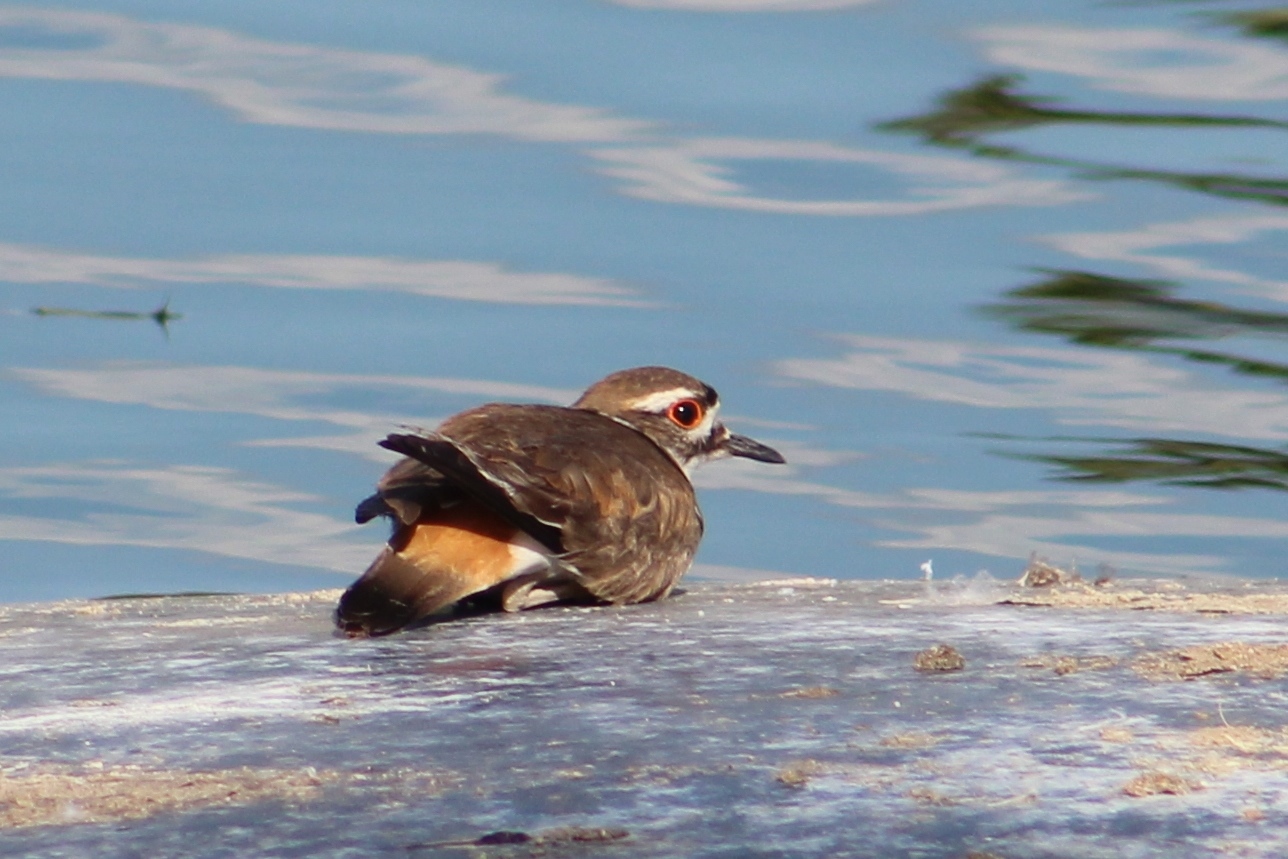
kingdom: Animalia
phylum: Chordata
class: Aves
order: Charadriiformes
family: Charadriidae
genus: Charadrius
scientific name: Charadrius vociferus
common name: Killdeer
